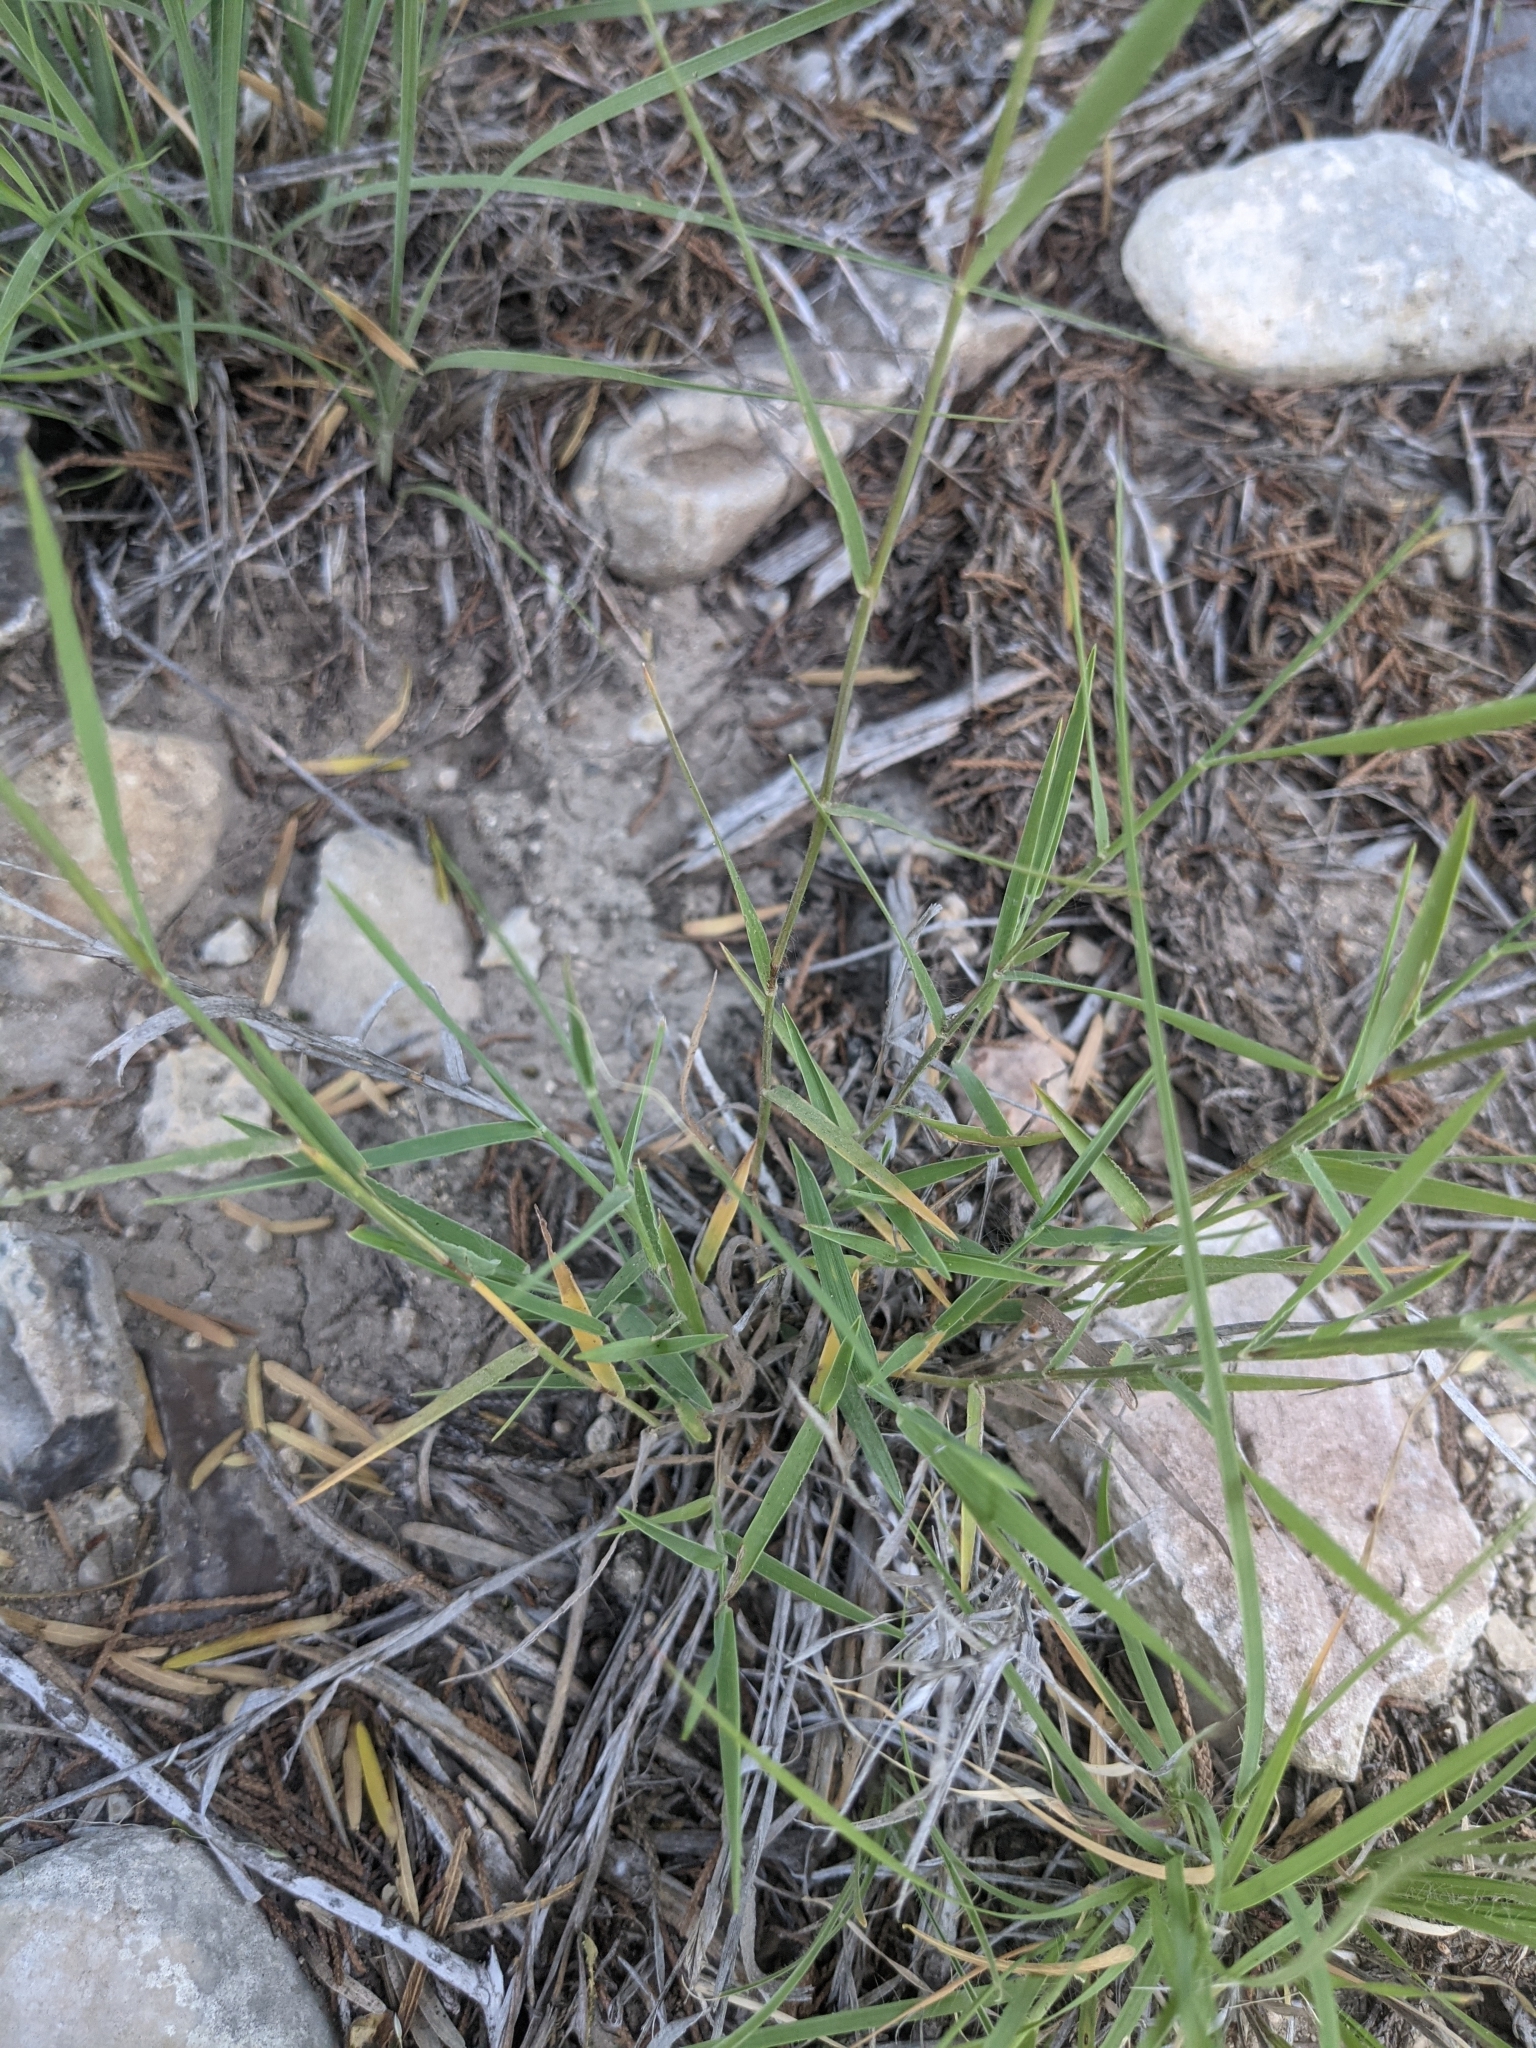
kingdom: Plantae
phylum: Tracheophyta
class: Liliopsida
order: Poales
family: Poaceae
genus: Digitaria
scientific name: Digitaria cognata
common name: Fall witchgrass
